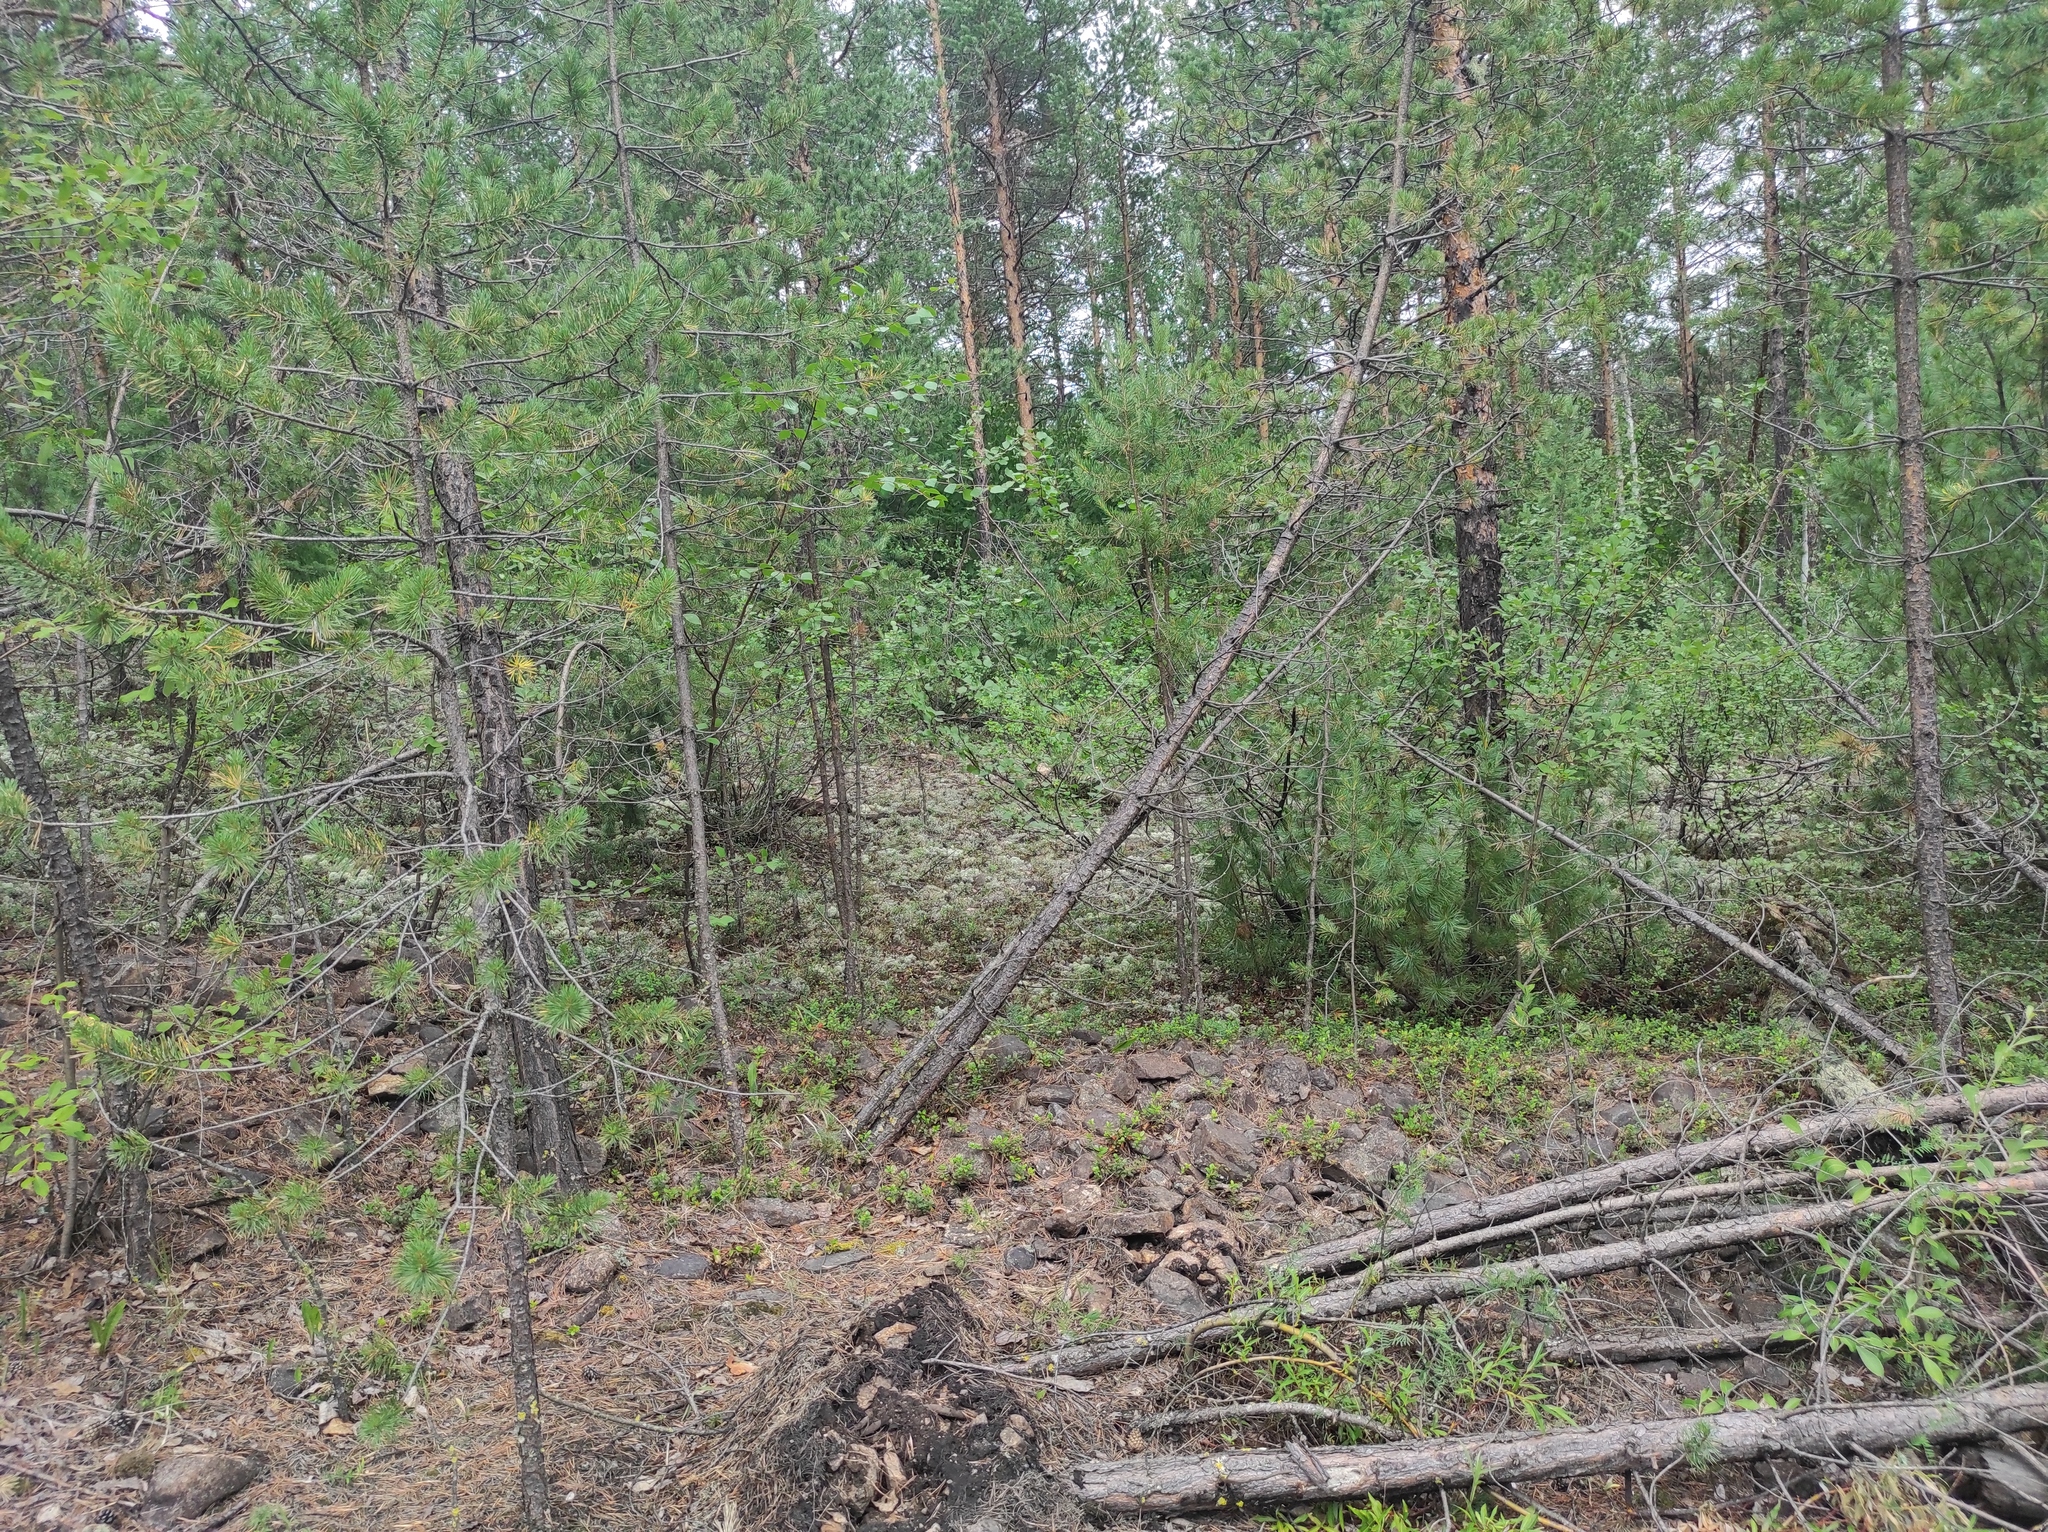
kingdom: Plantae
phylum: Tracheophyta
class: Pinopsida
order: Pinales
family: Pinaceae
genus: Pinus
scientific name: Pinus sylvestris
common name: Scots pine
